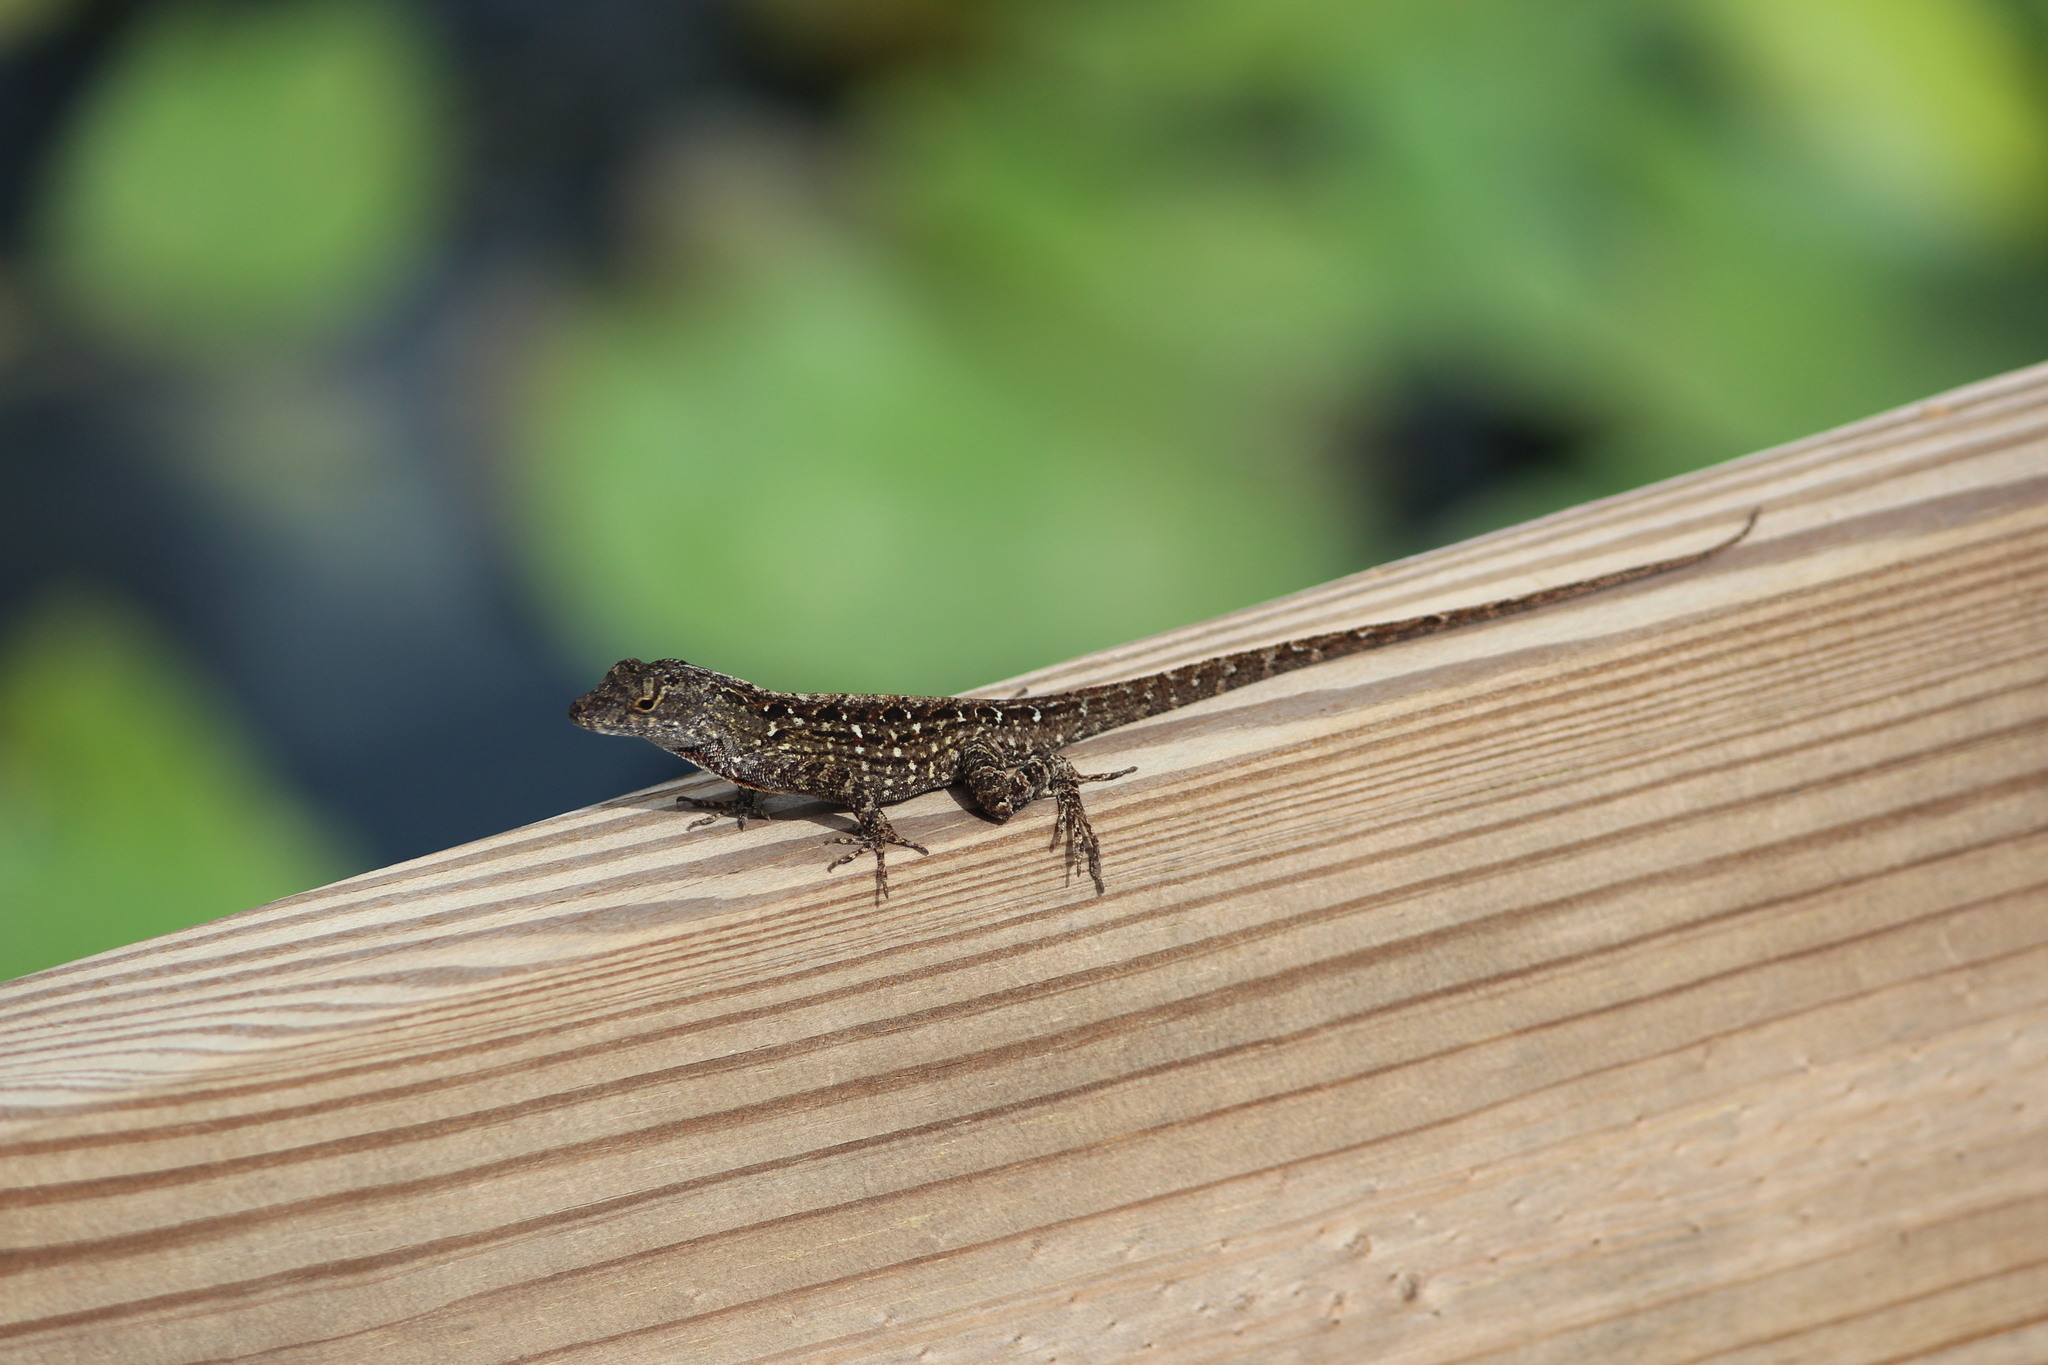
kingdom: Animalia
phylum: Chordata
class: Squamata
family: Dactyloidae
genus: Anolis
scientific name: Anolis sagrei
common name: Brown anole
